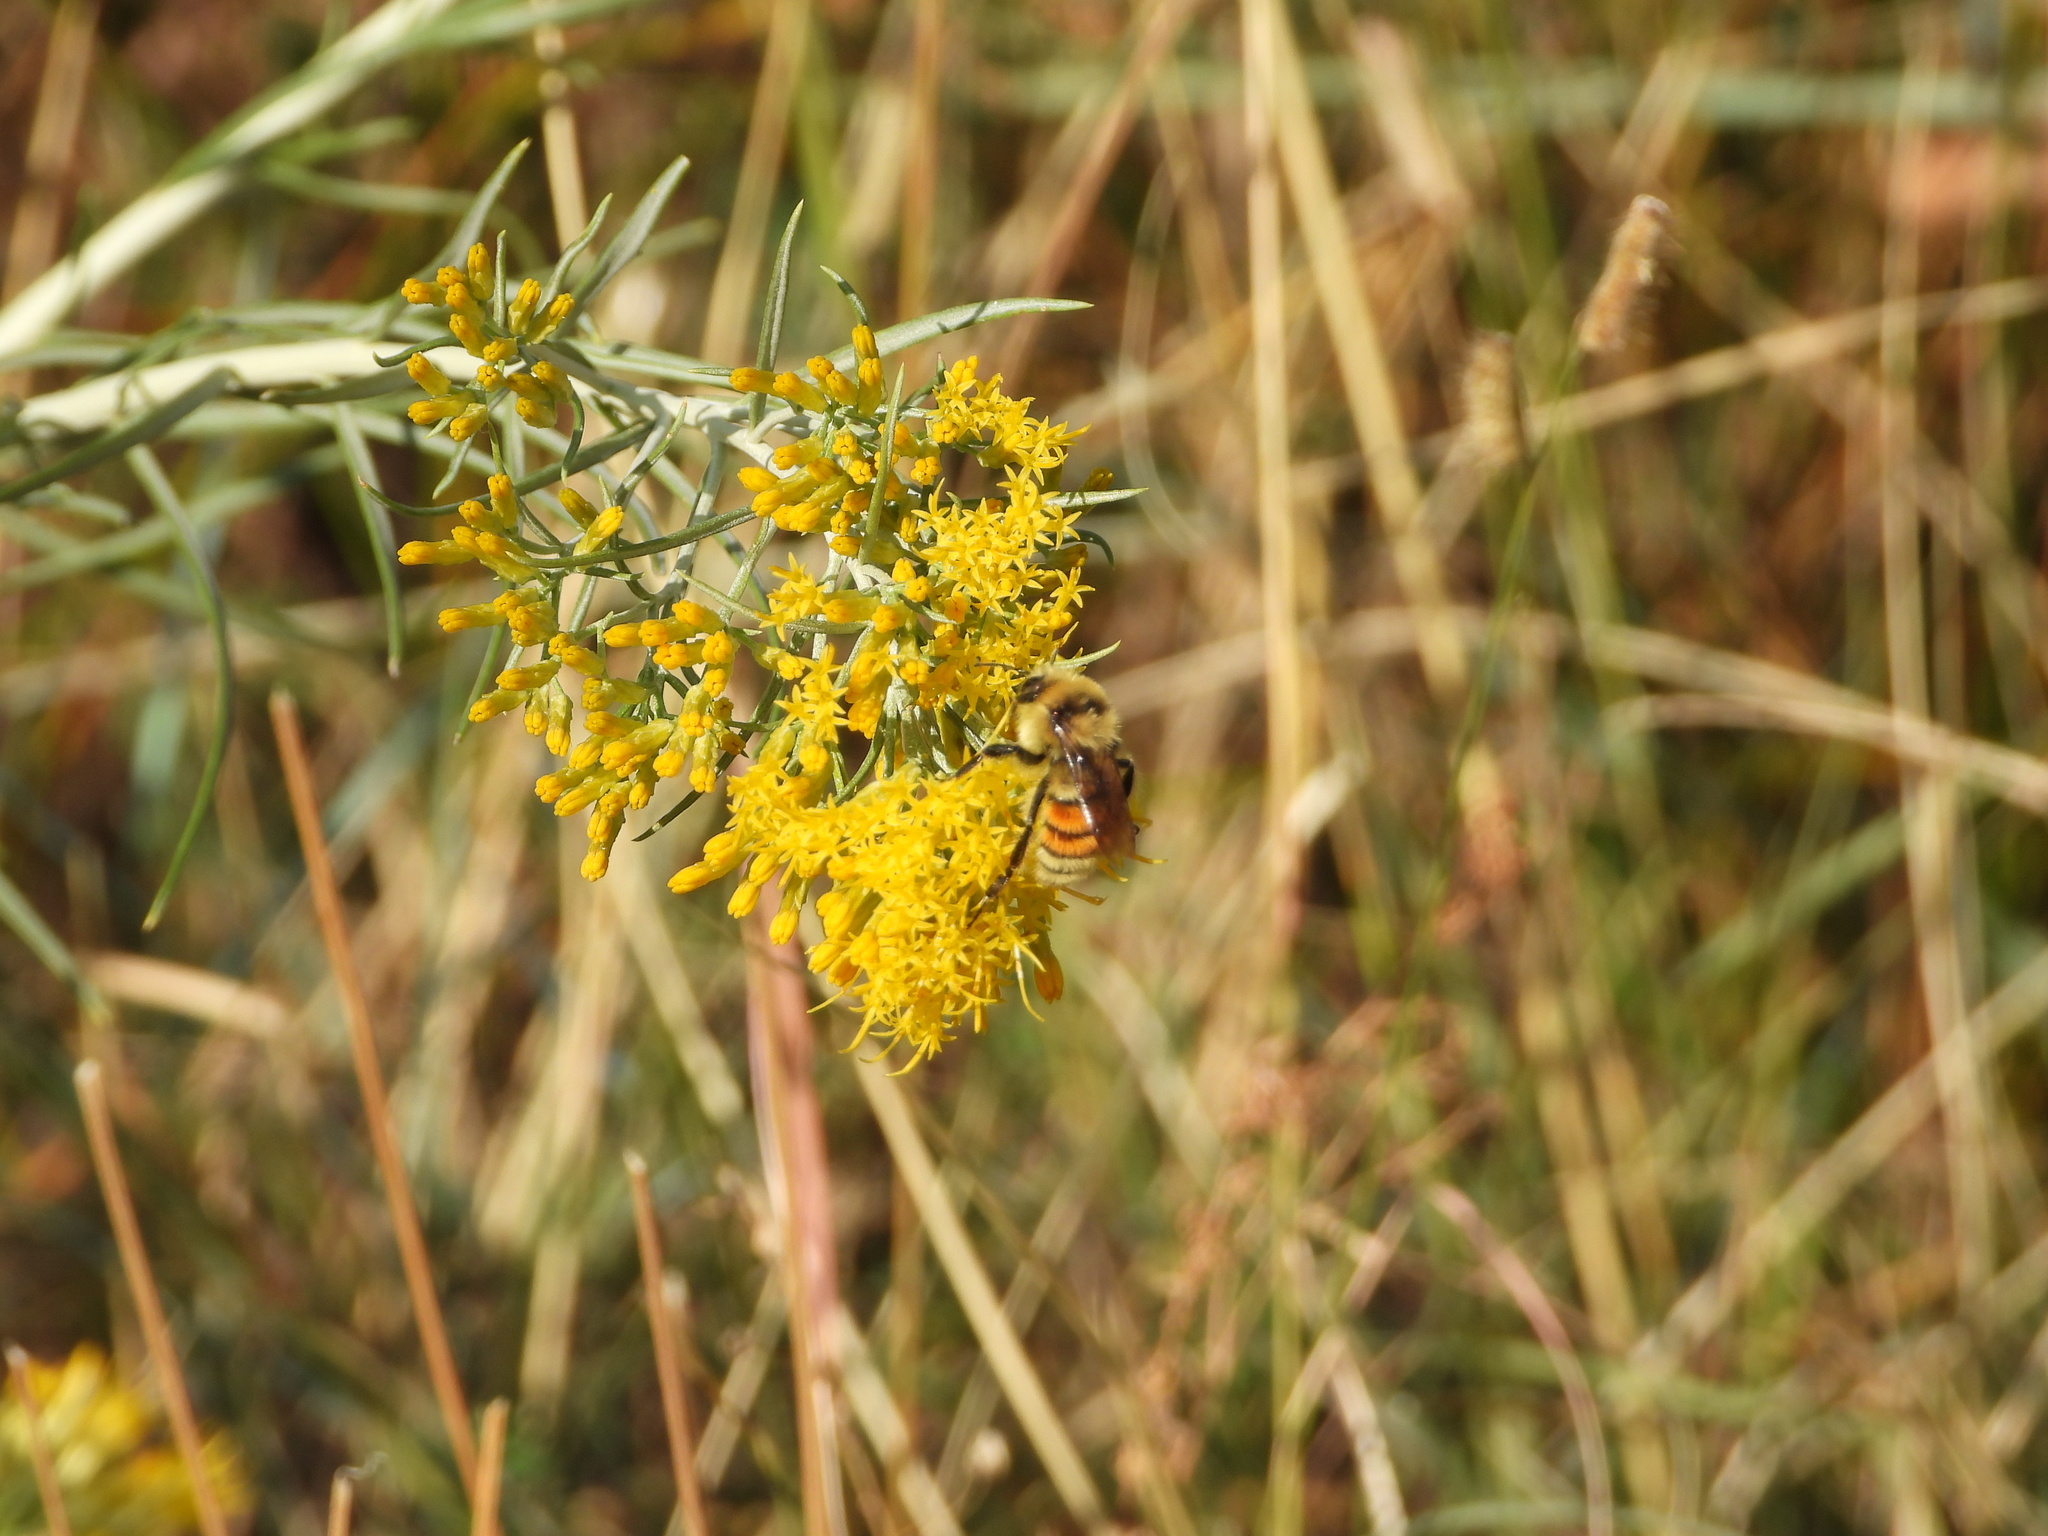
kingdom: Animalia
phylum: Arthropoda
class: Insecta
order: Hymenoptera
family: Apidae
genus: Bombus
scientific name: Bombus huntii
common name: Hunt bumble bee
